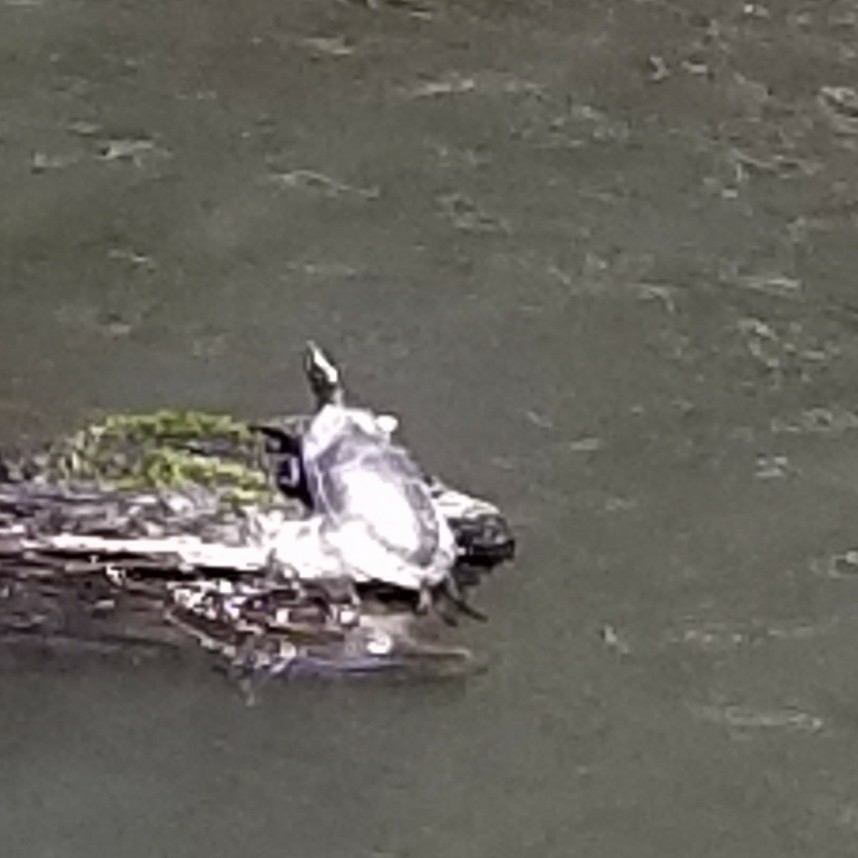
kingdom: Animalia
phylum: Chordata
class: Testudines
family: Emydidae
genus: Chrysemys
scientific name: Chrysemys picta
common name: Painted turtle
